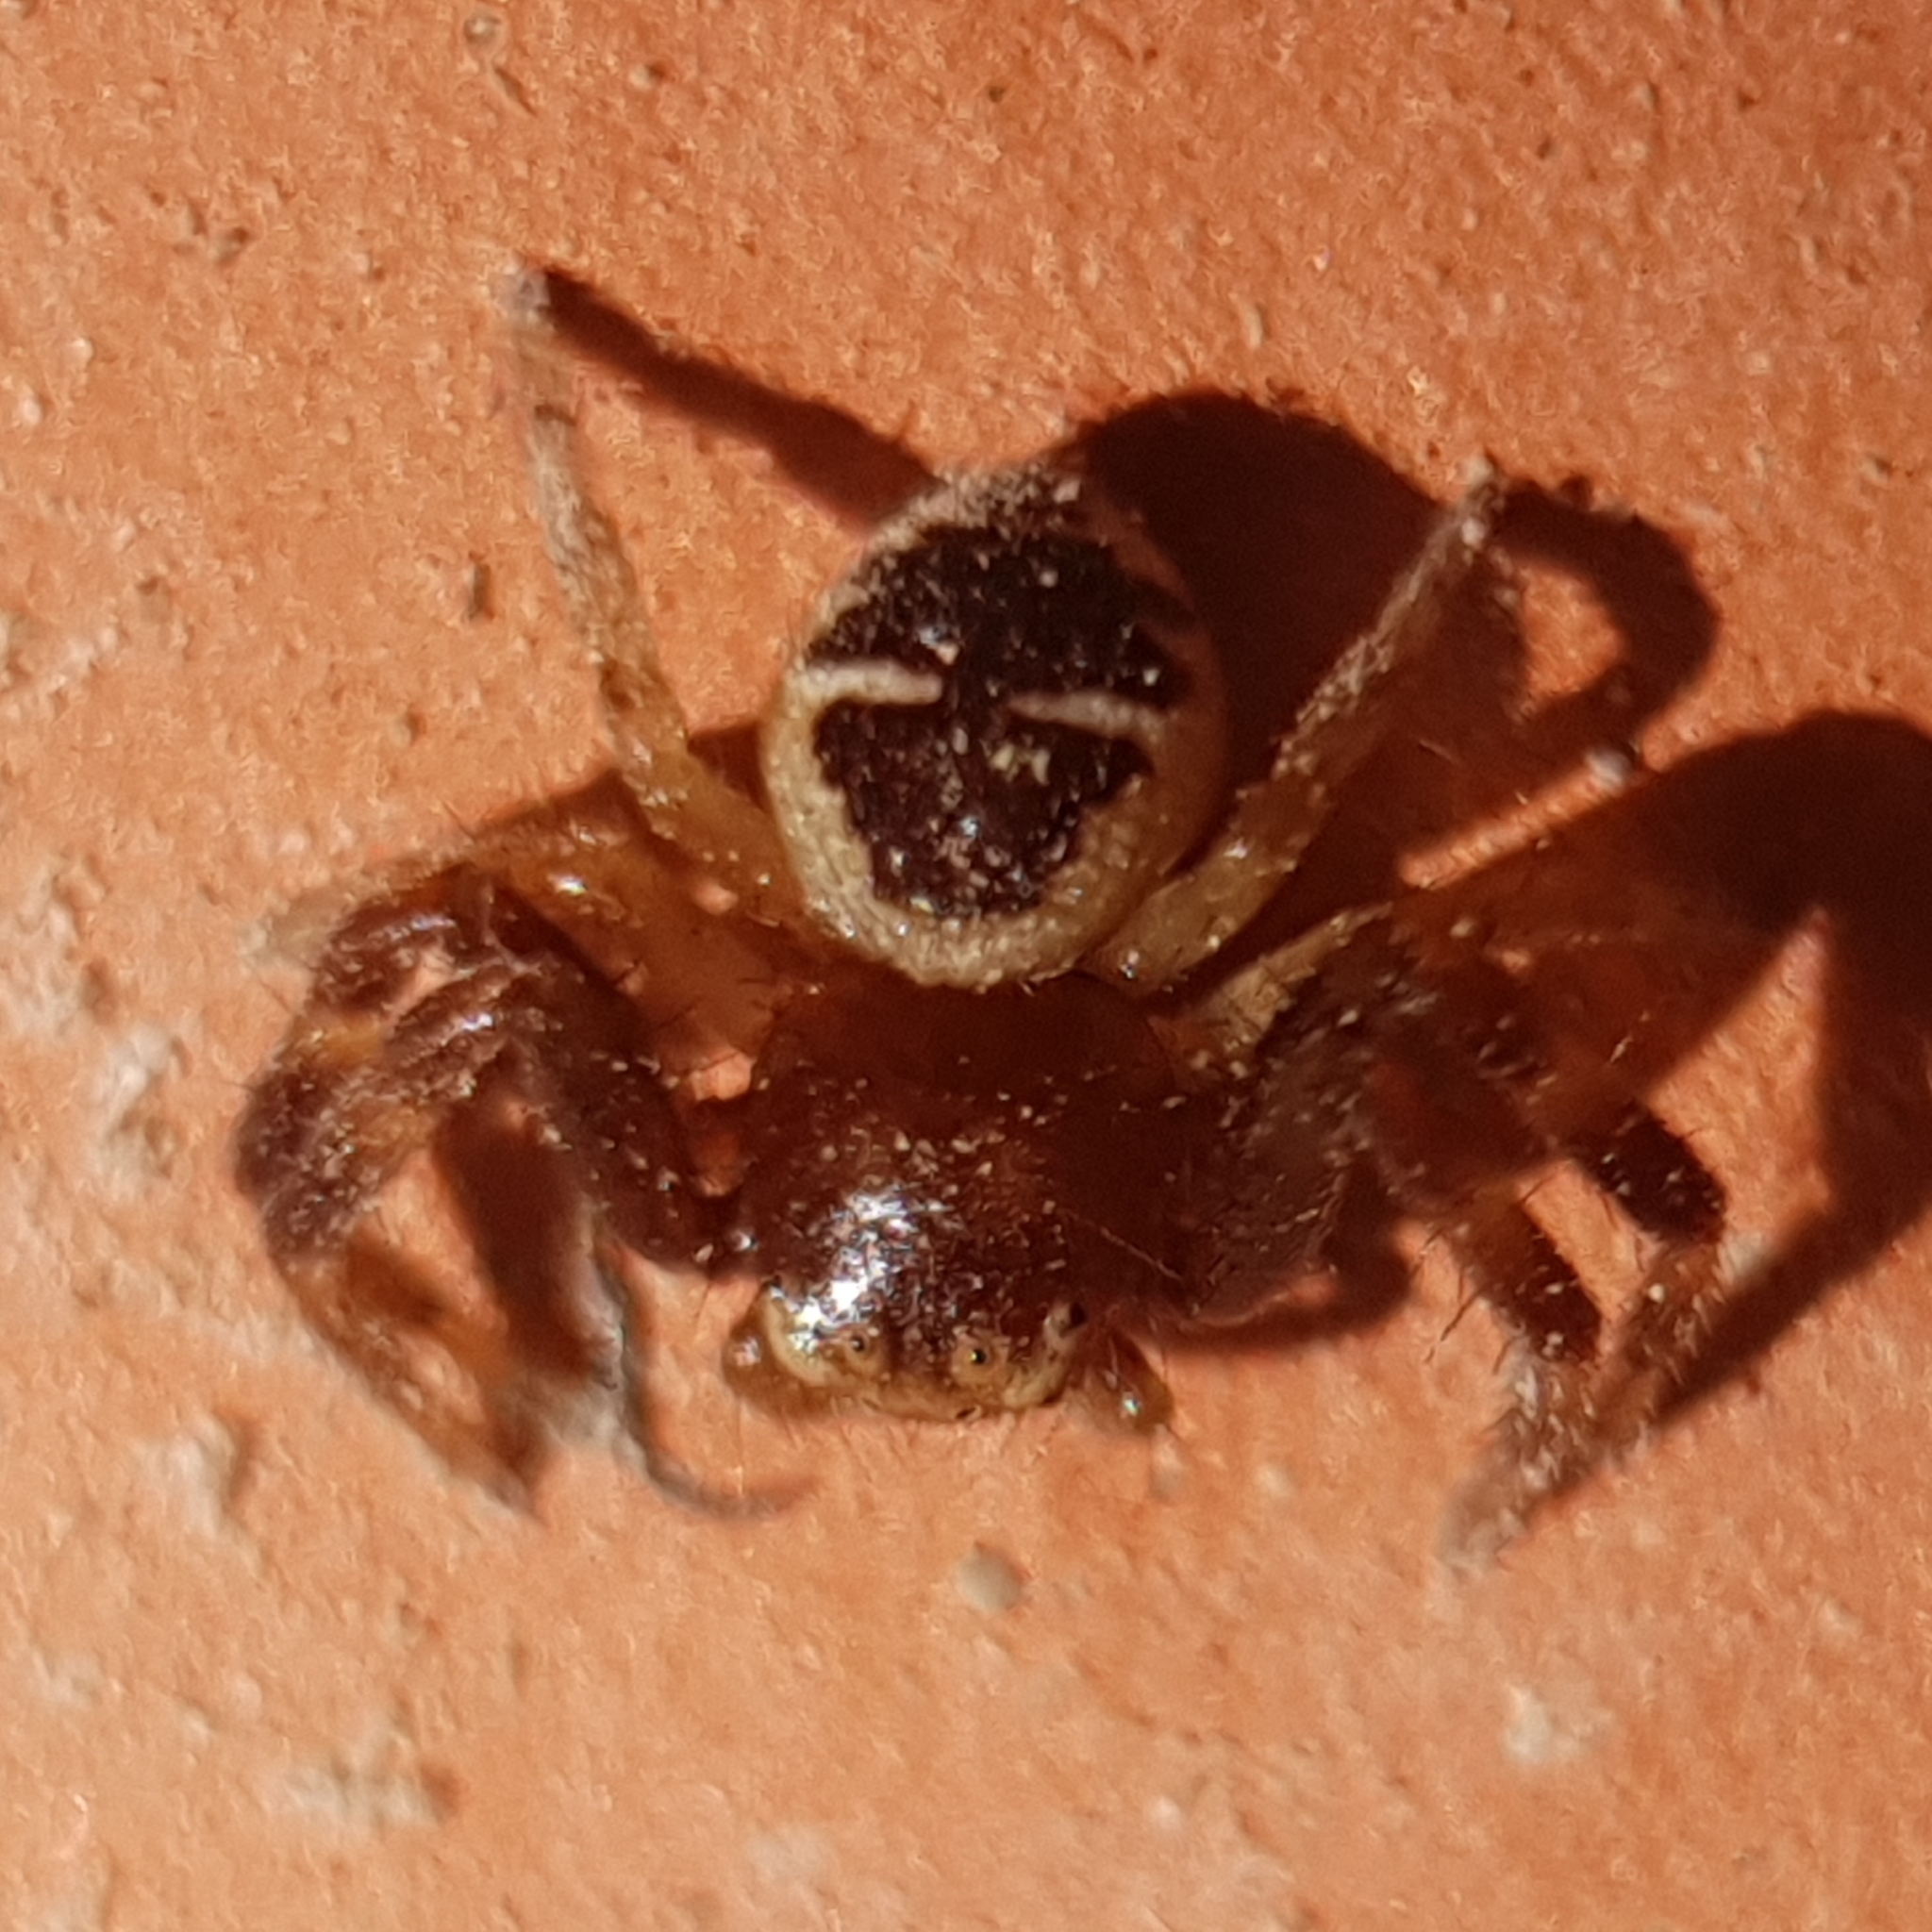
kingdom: Animalia
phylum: Arthropoda
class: Arachnida
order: Araneae
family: Thomisidae
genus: Synema
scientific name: Synema globosum
